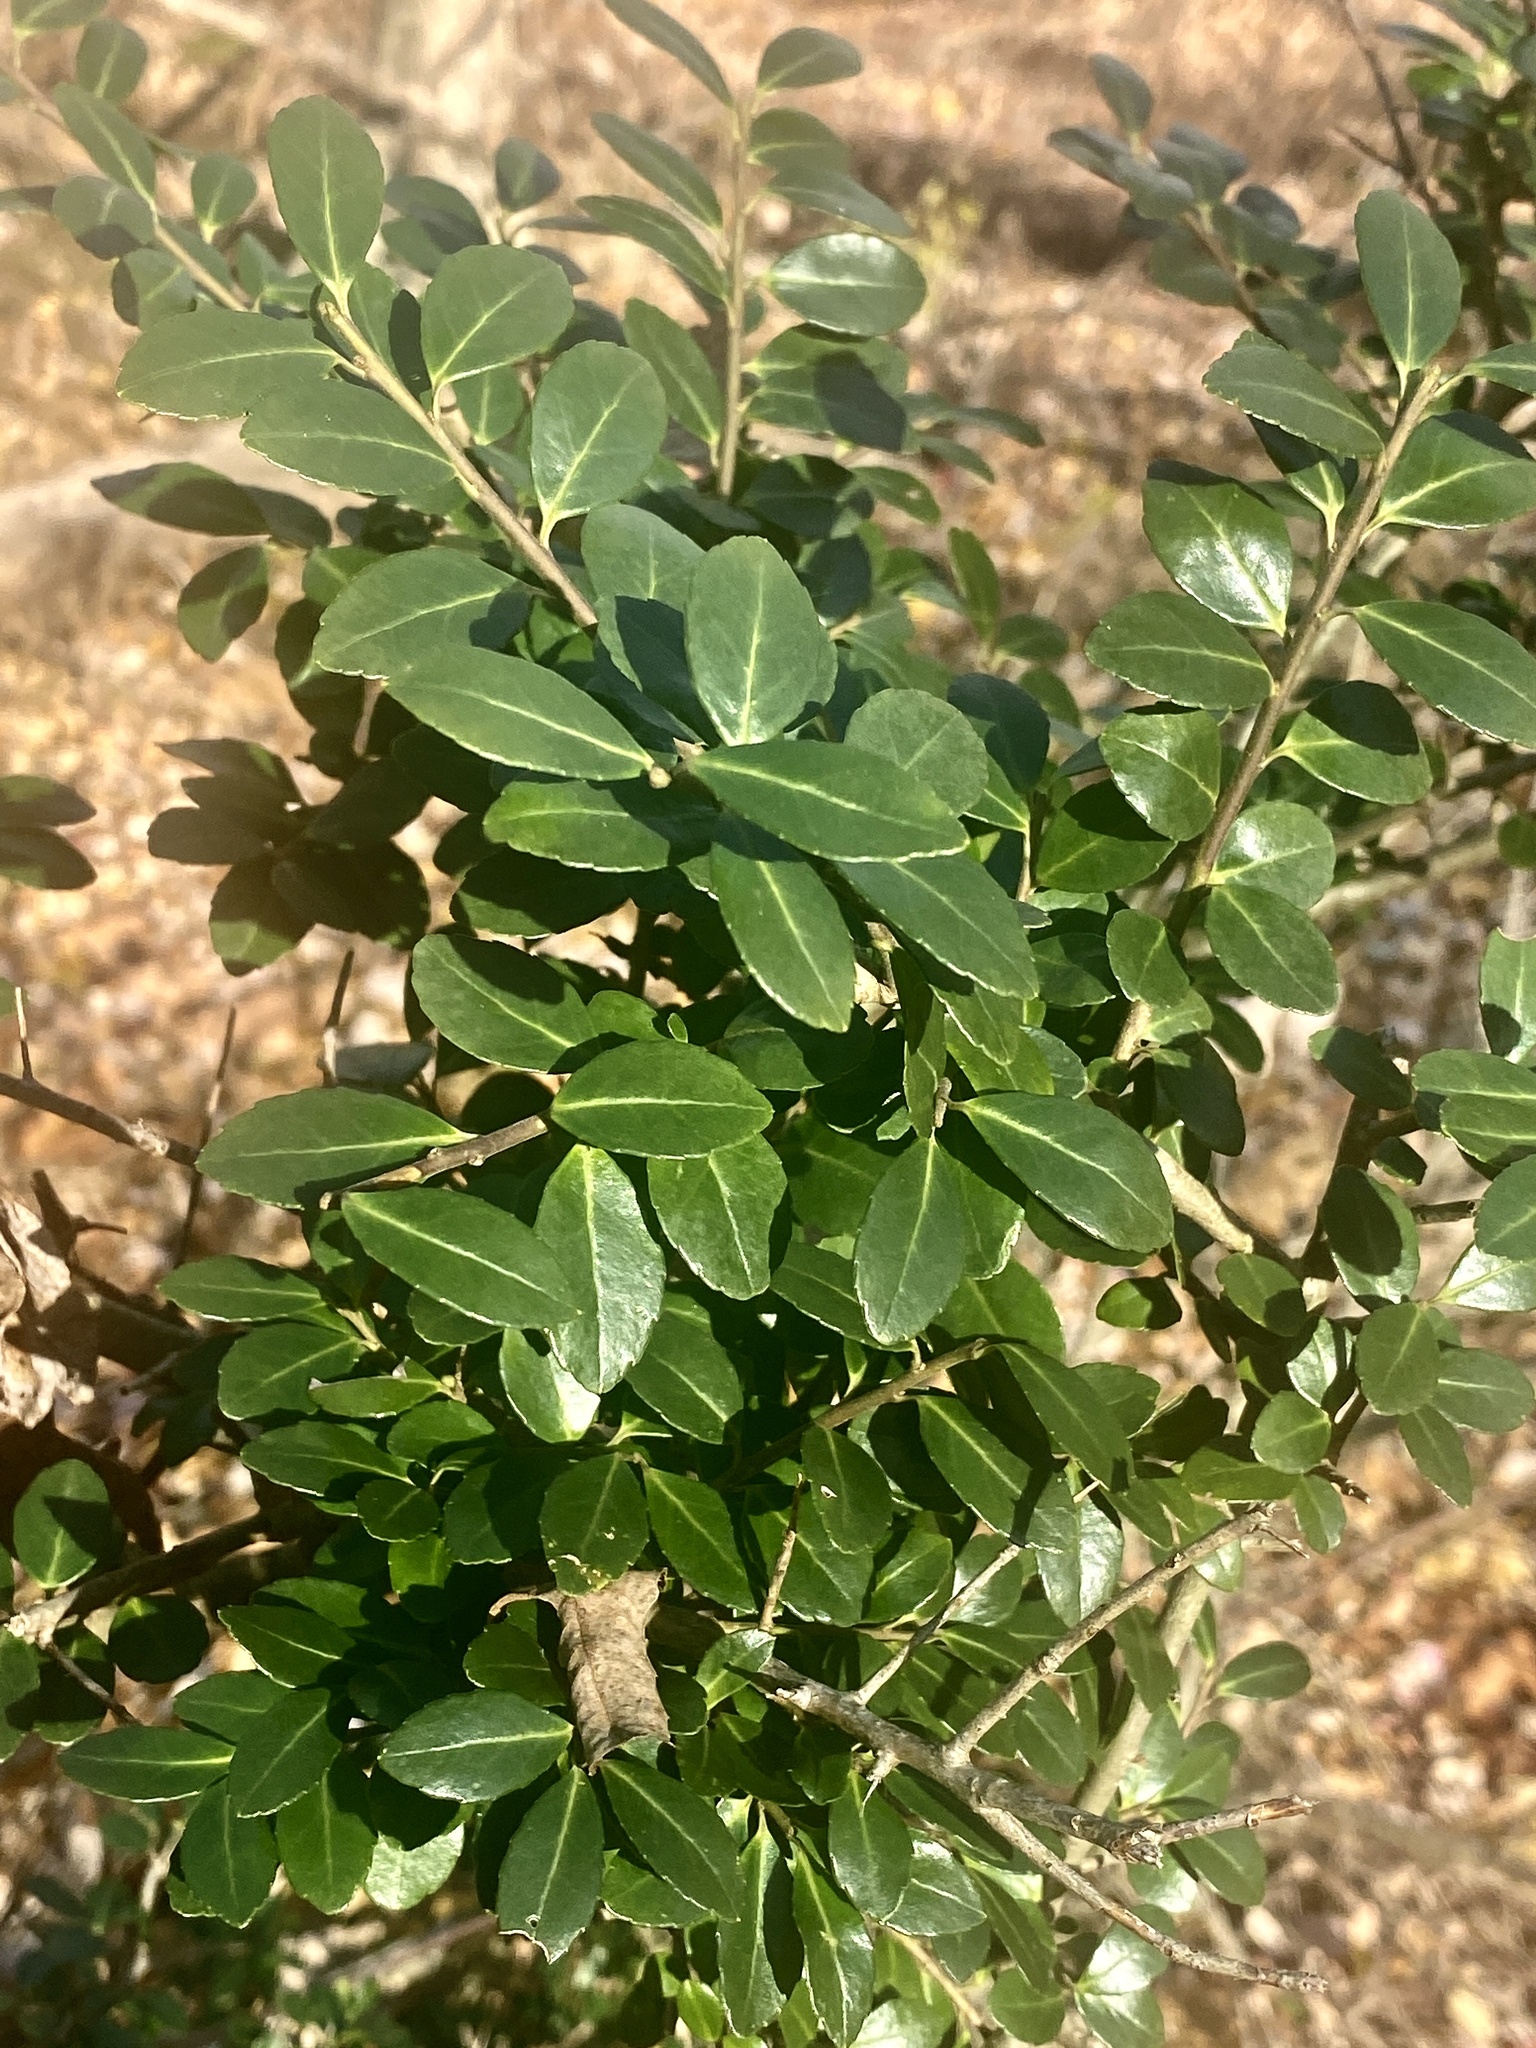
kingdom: Plantae
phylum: Tracheophyta
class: Magnoliopsida
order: Aquifoliales
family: Aquifoliaceae
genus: Ilex
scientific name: Ilex crenata
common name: Japanese holly
